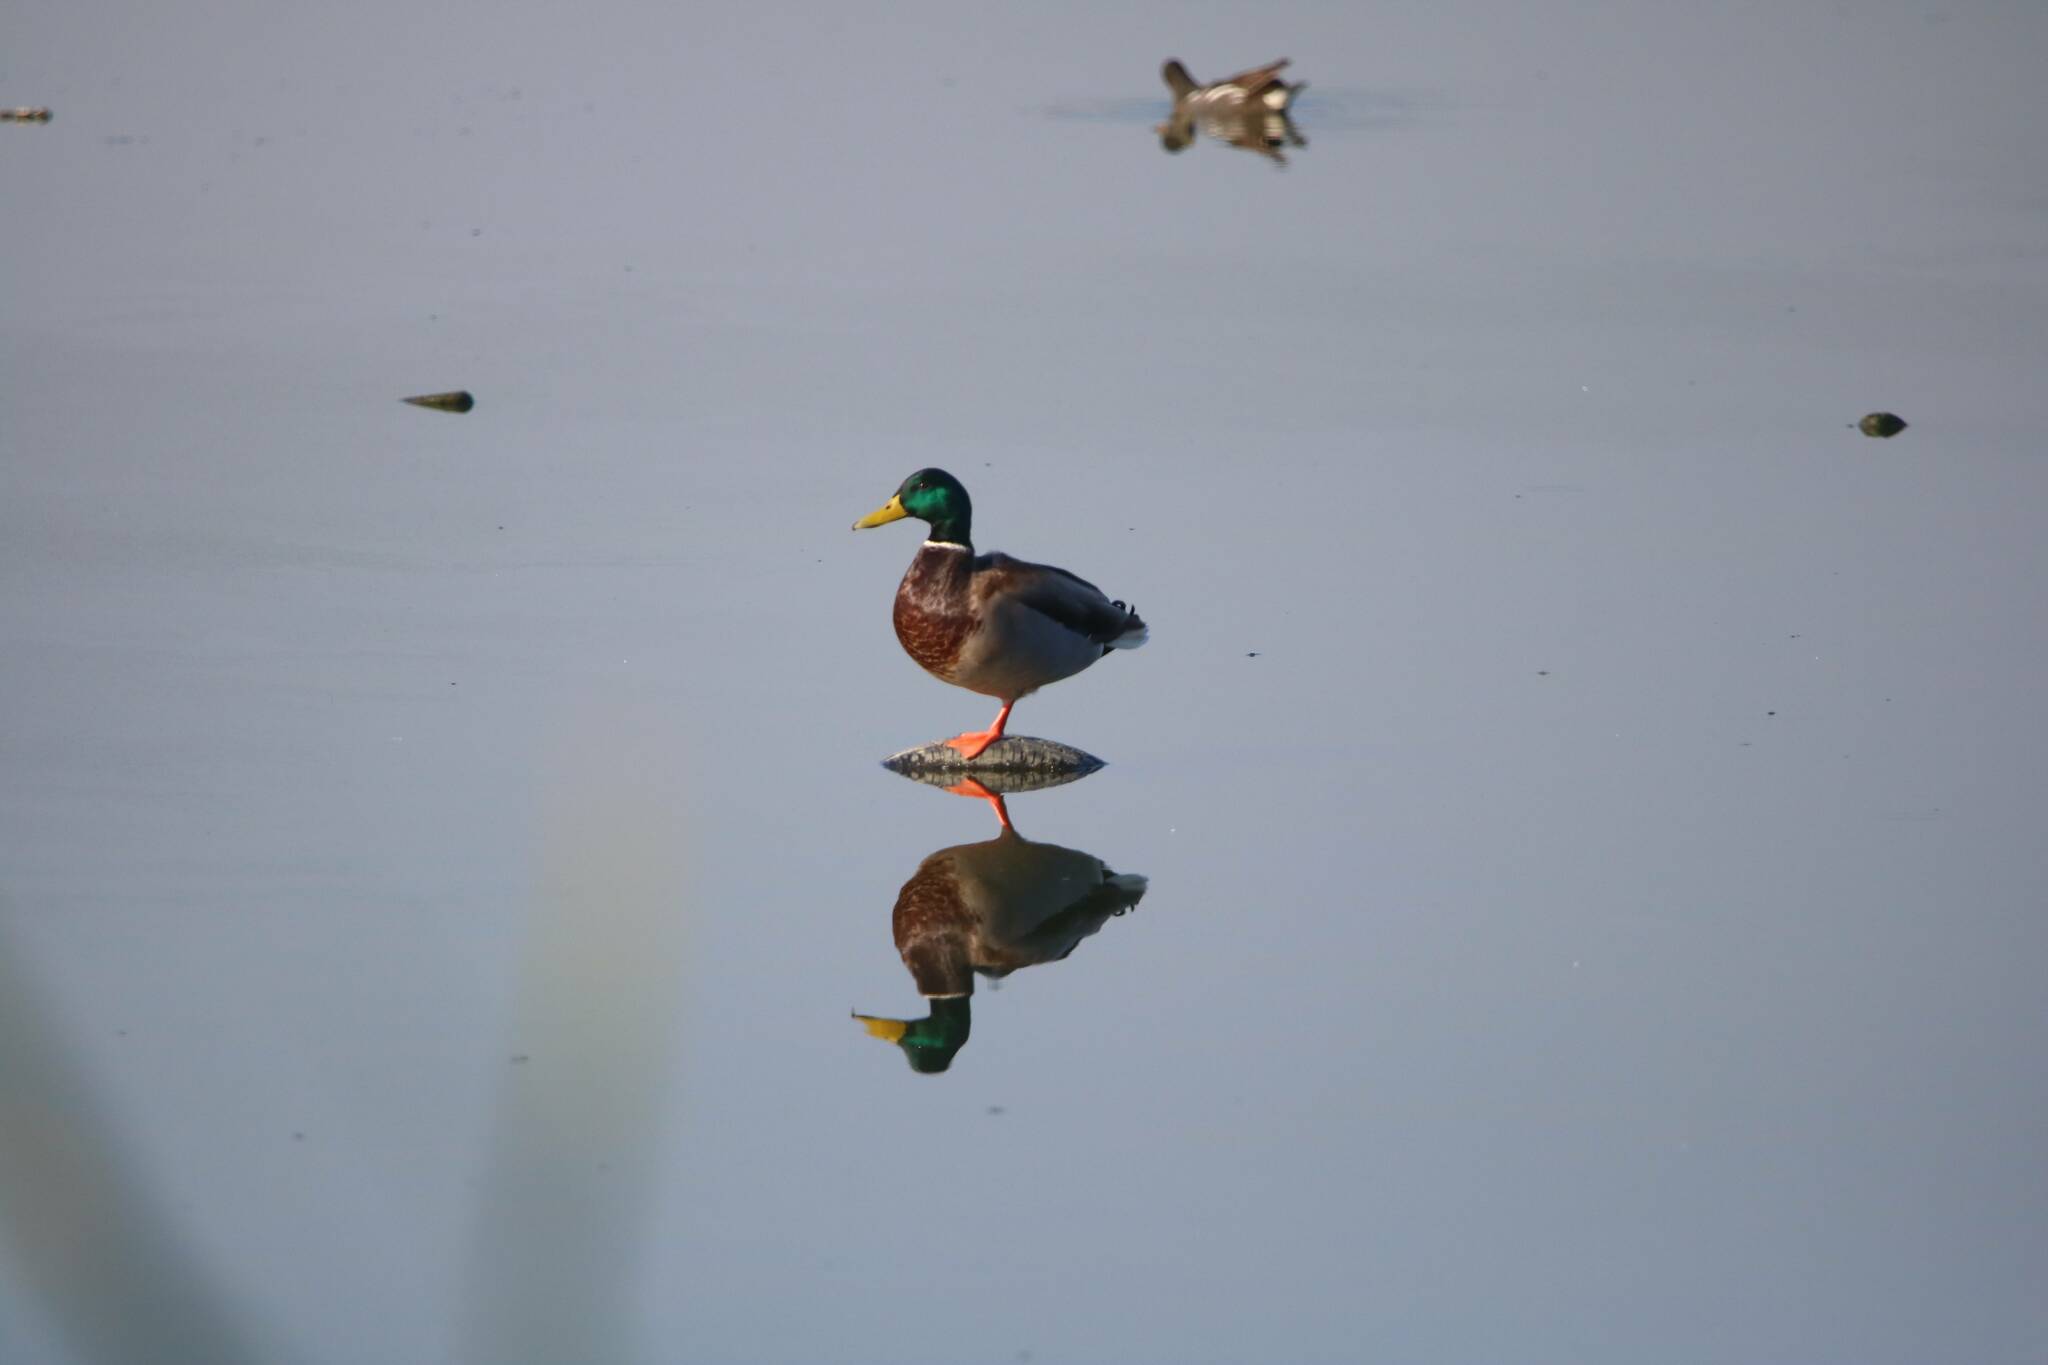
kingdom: Animalia
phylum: Chordata
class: Aves
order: Anseriformes
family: Anatidae
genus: Anas
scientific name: Anas platyrhynchos
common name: Mallard
